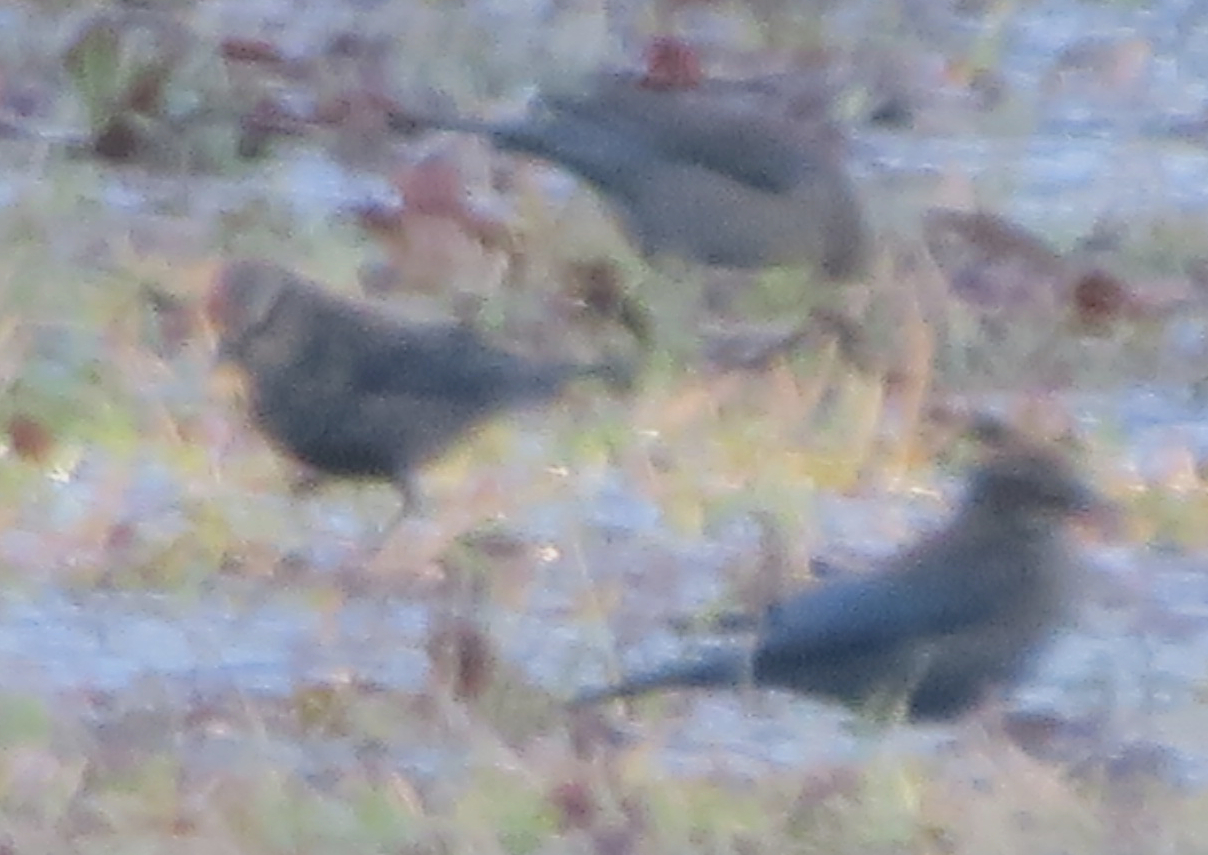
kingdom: Animalia
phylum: Chordata
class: Aves
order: Passeriformes
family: Icteridae
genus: Euphagus
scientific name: Euphagus carolinus
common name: Rusty blackbird
